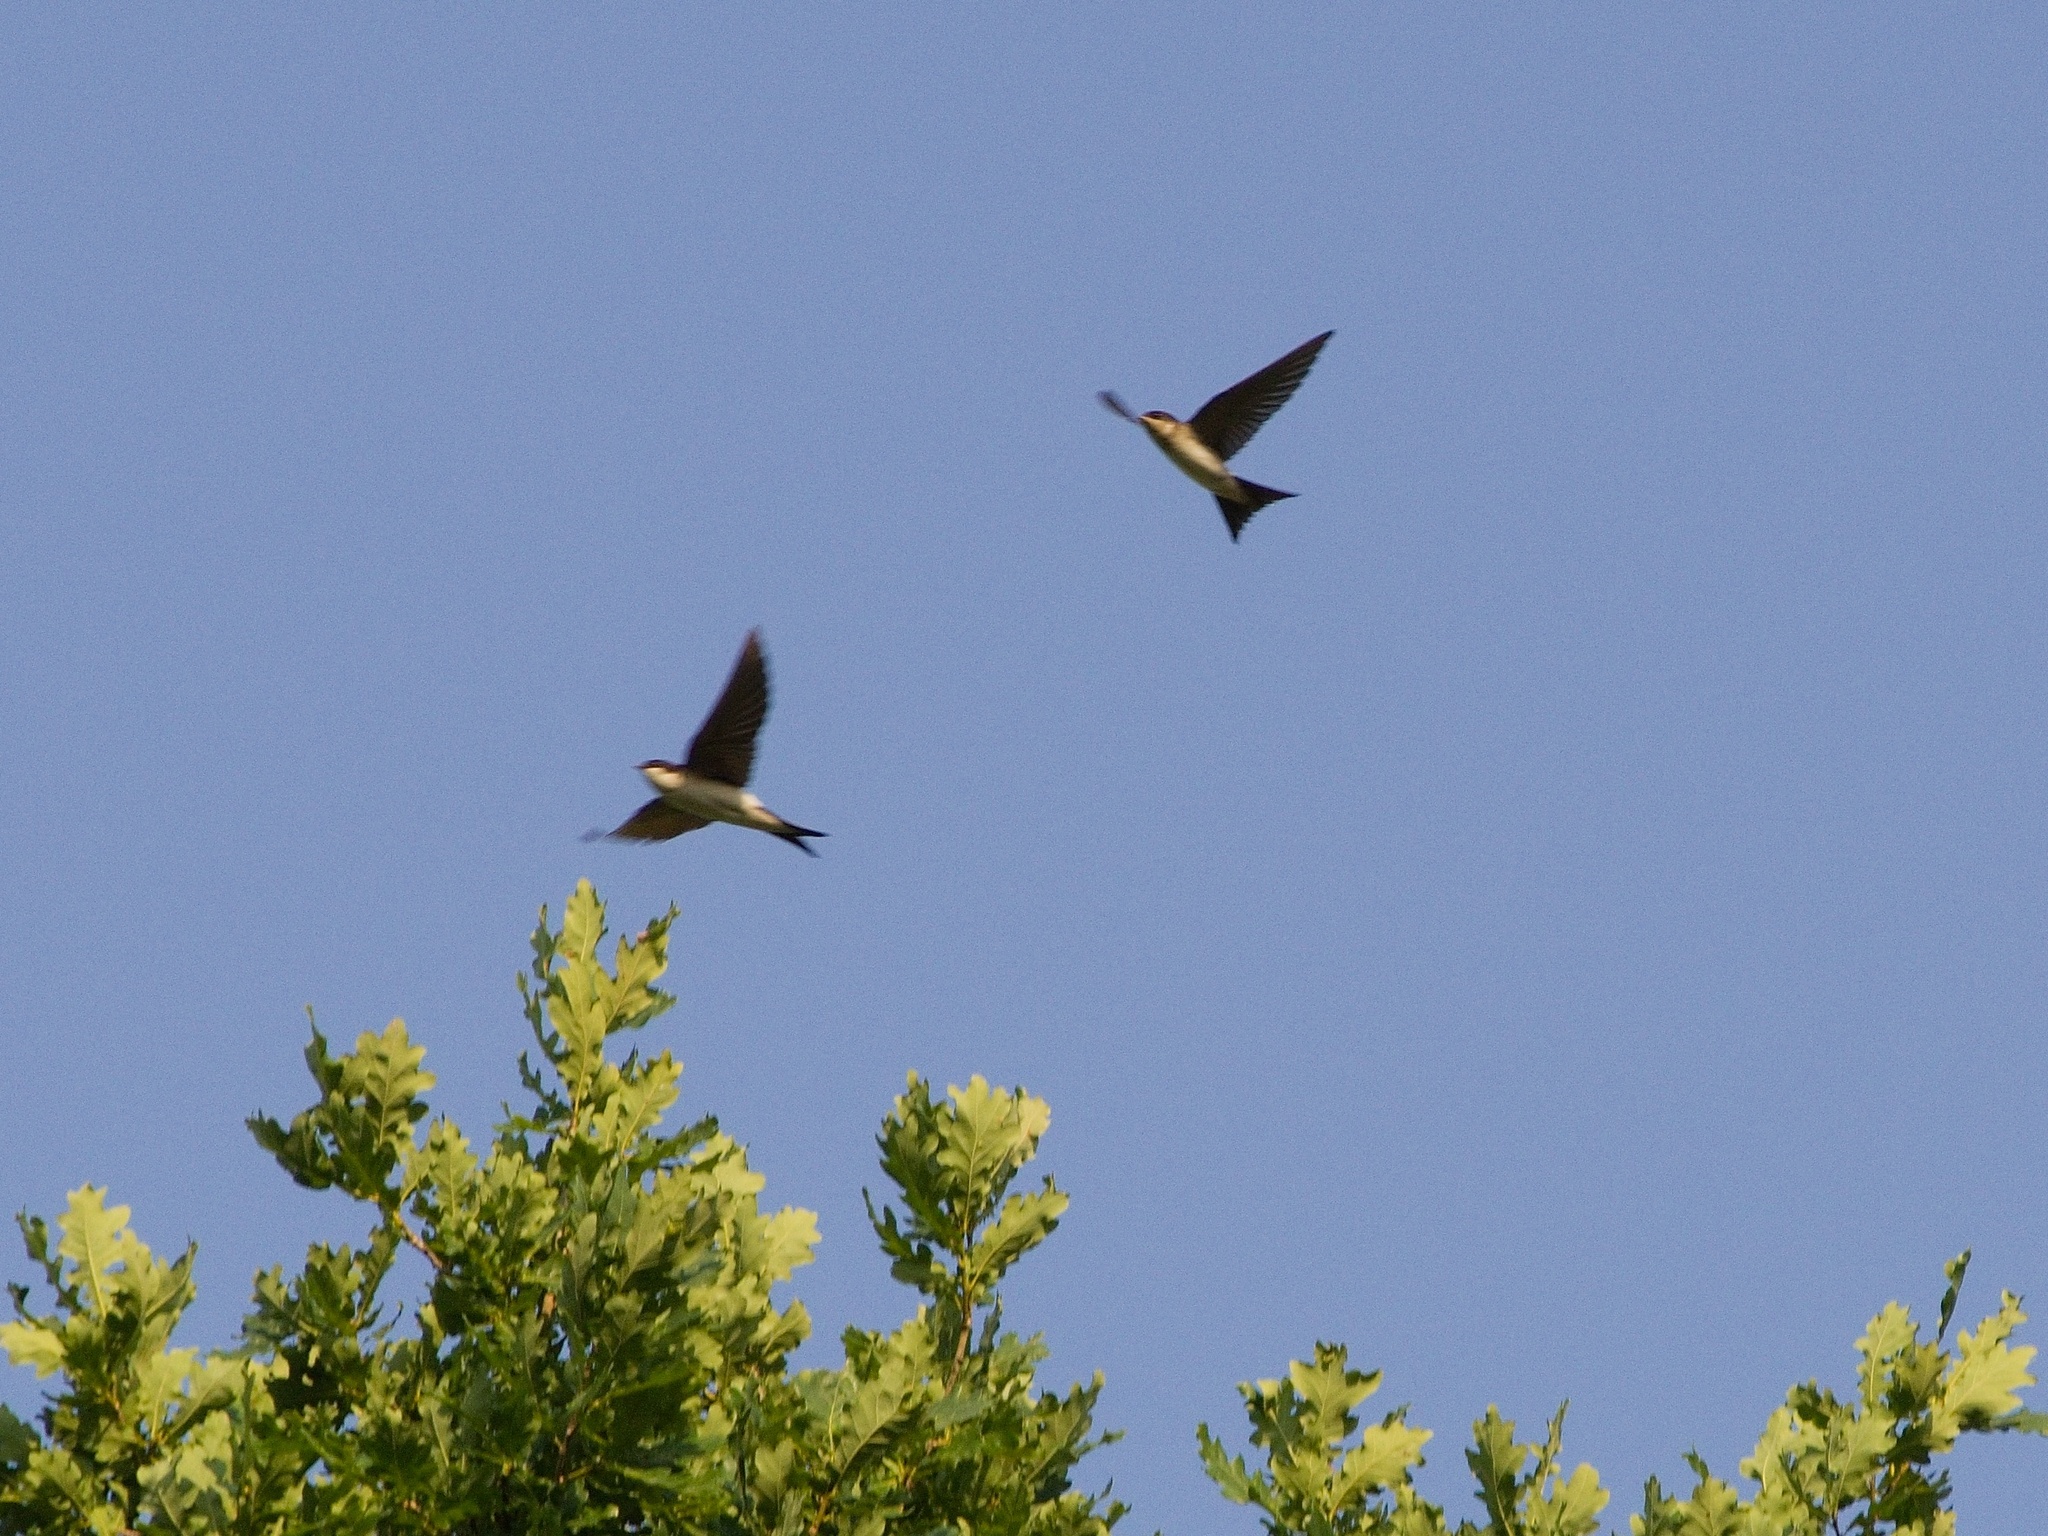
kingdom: Animalia
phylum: Chordata
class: Aves
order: Passeriformes
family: Hirundinidae
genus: Delichon
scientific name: Delichon urbicum
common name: Common house martin
